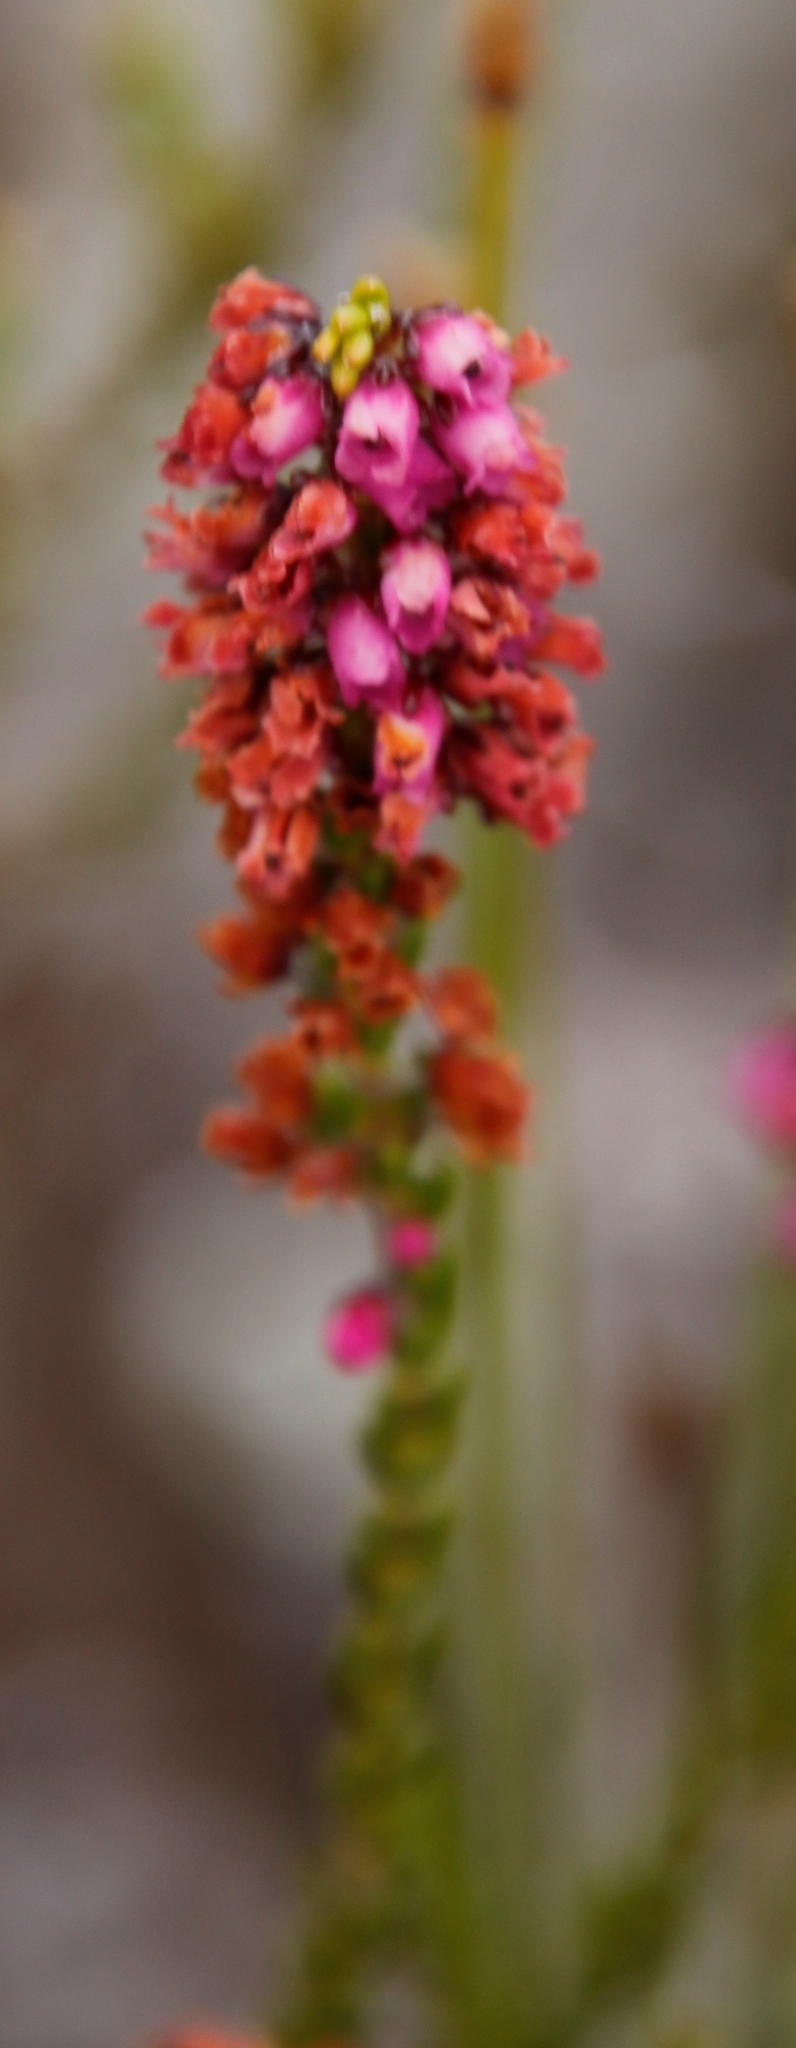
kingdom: Plantae
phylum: Tracheophyta
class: Magnoliopsida
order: Ericales
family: Ericaceae
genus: Erica
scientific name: Erica pulchella
